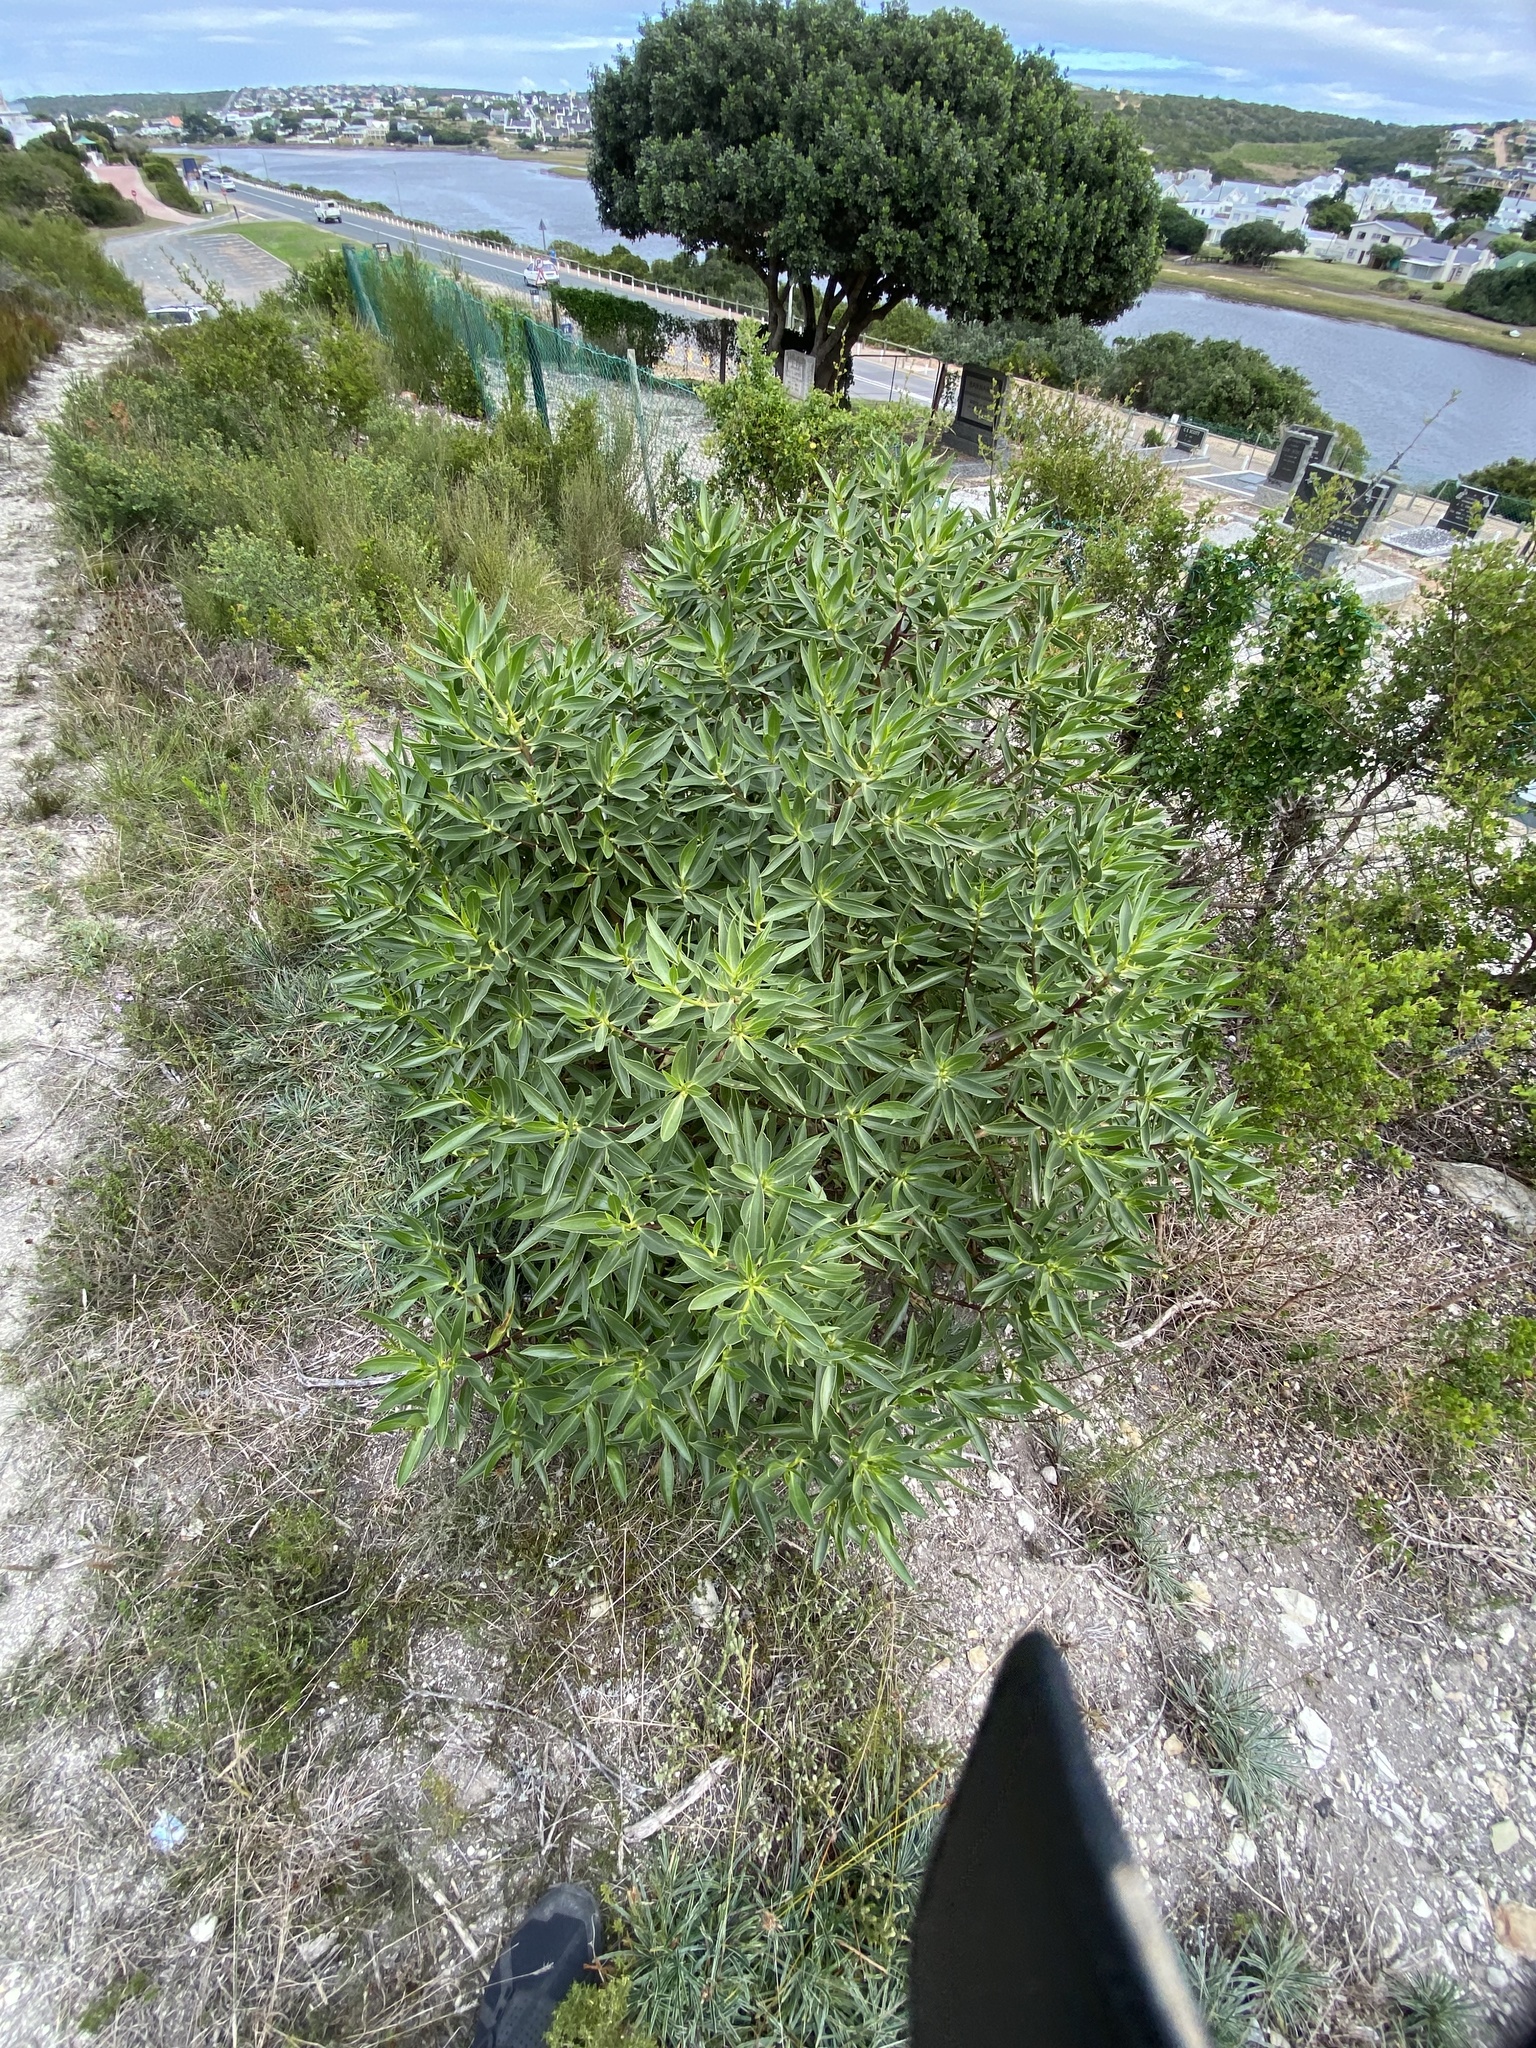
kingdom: Plantae
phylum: Tracheophyta
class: Magnoliopsida
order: Lamiales
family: Scrophulariaceae
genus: Myoporum
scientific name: Myoporum insulare
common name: Common boobialla
